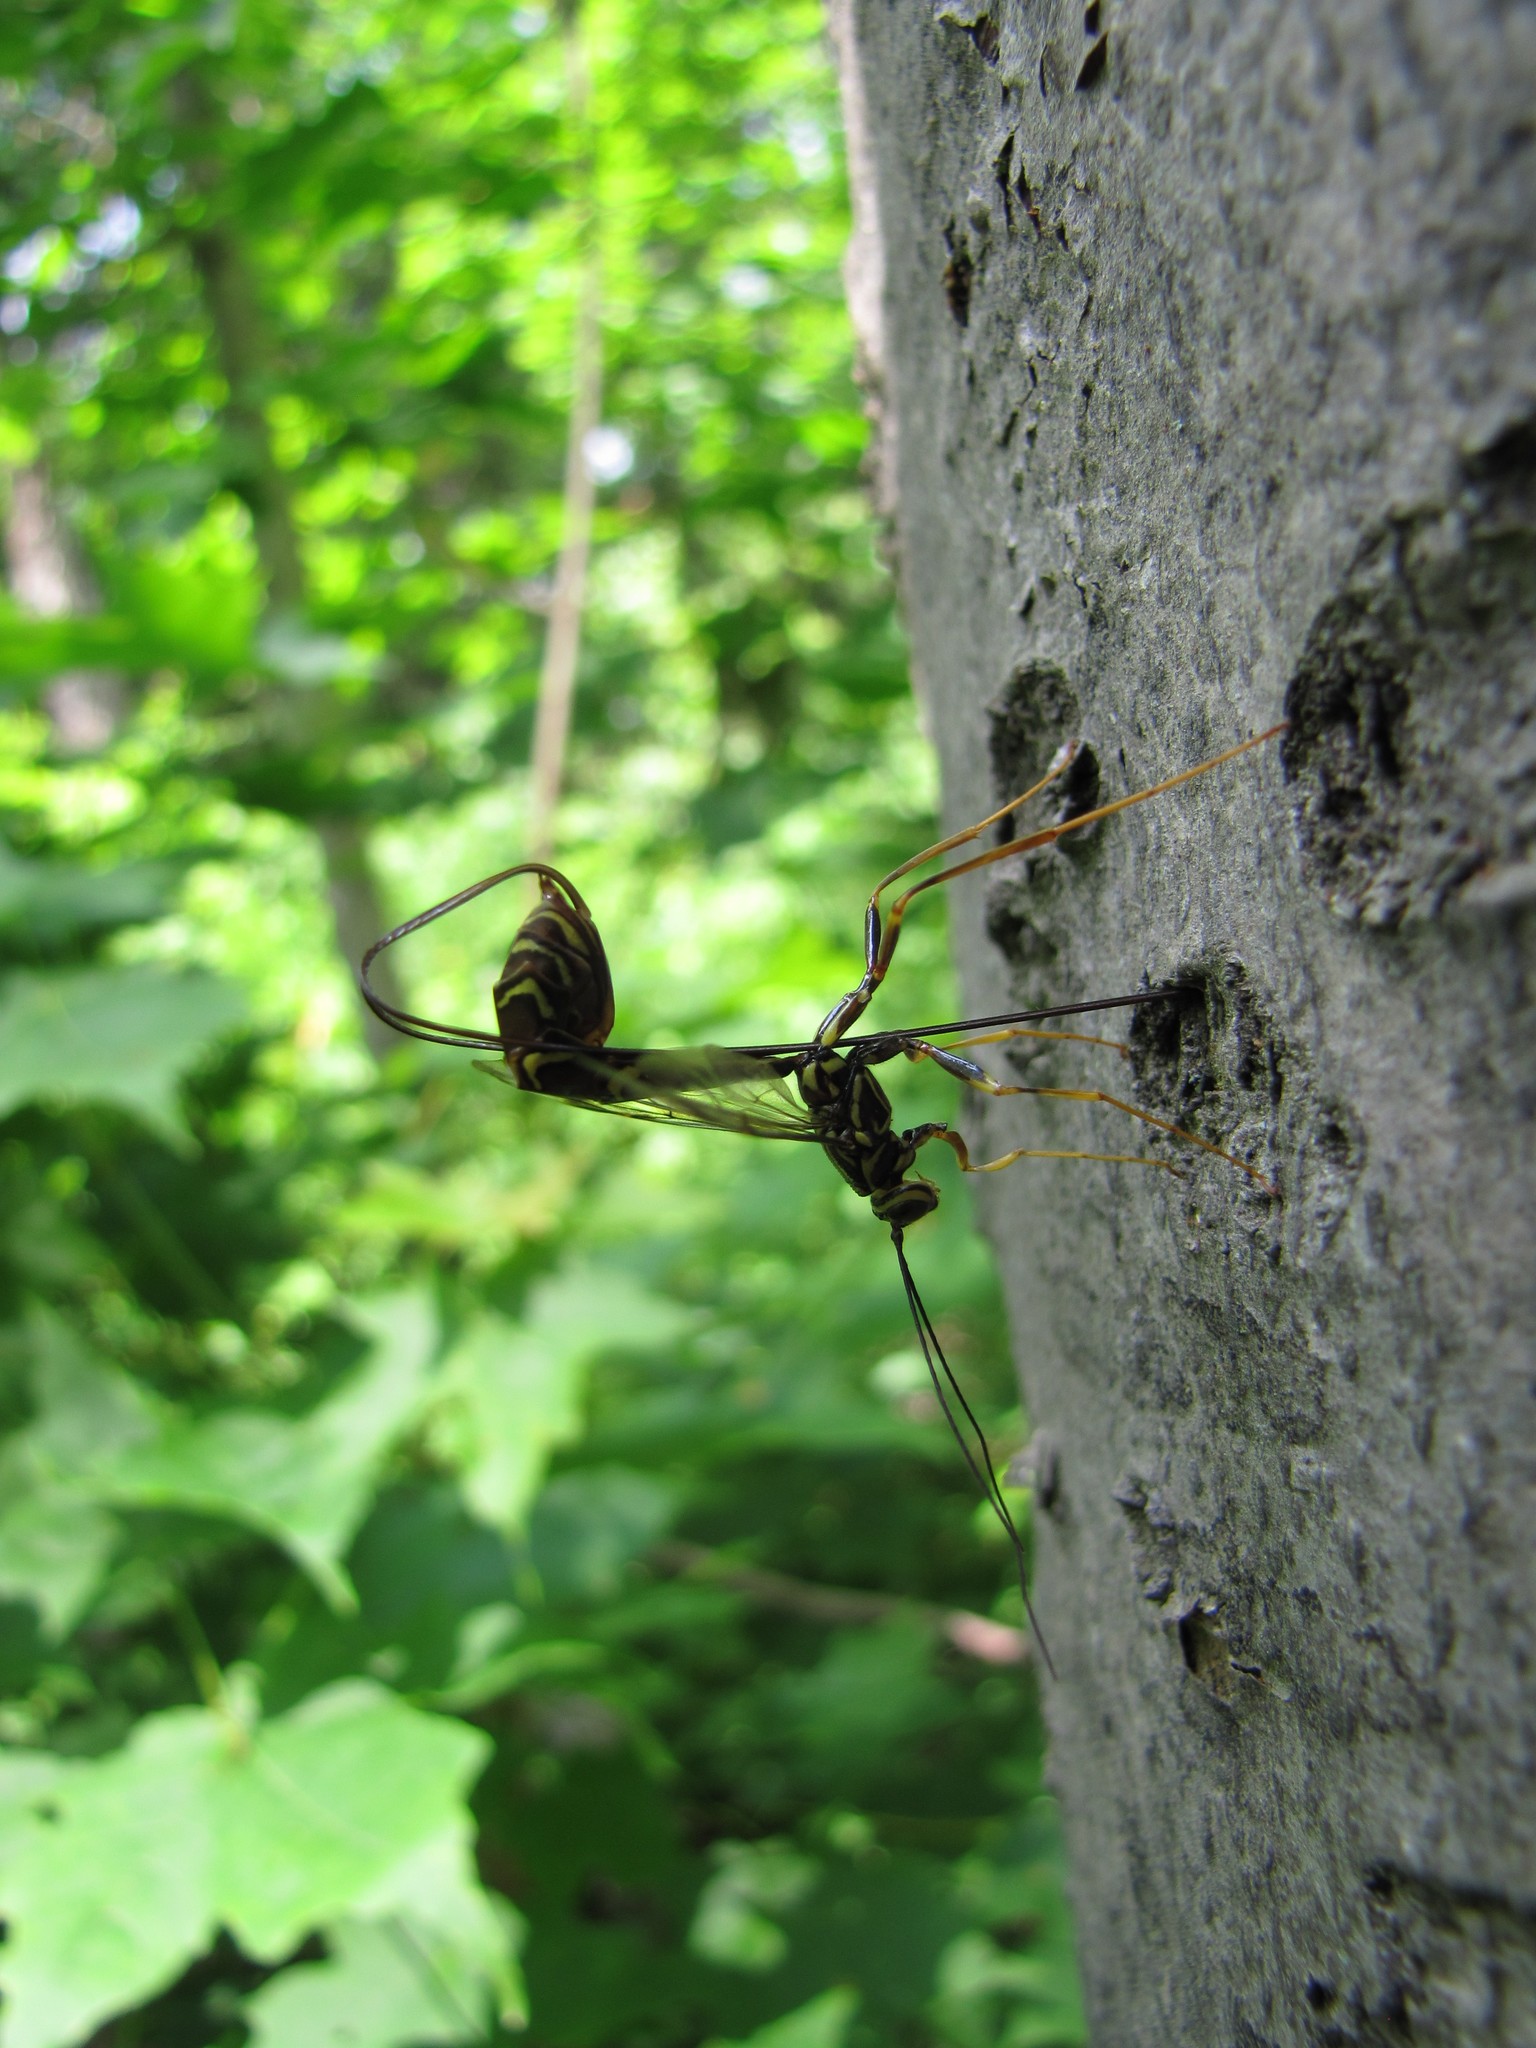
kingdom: Animalia
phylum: Arthropoda
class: Insecta
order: Hymenoptera
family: Ichneumonidae
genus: Megarhyssa
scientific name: Megarhyssa macrura
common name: Long-tailed giant ichneumonid wasp
